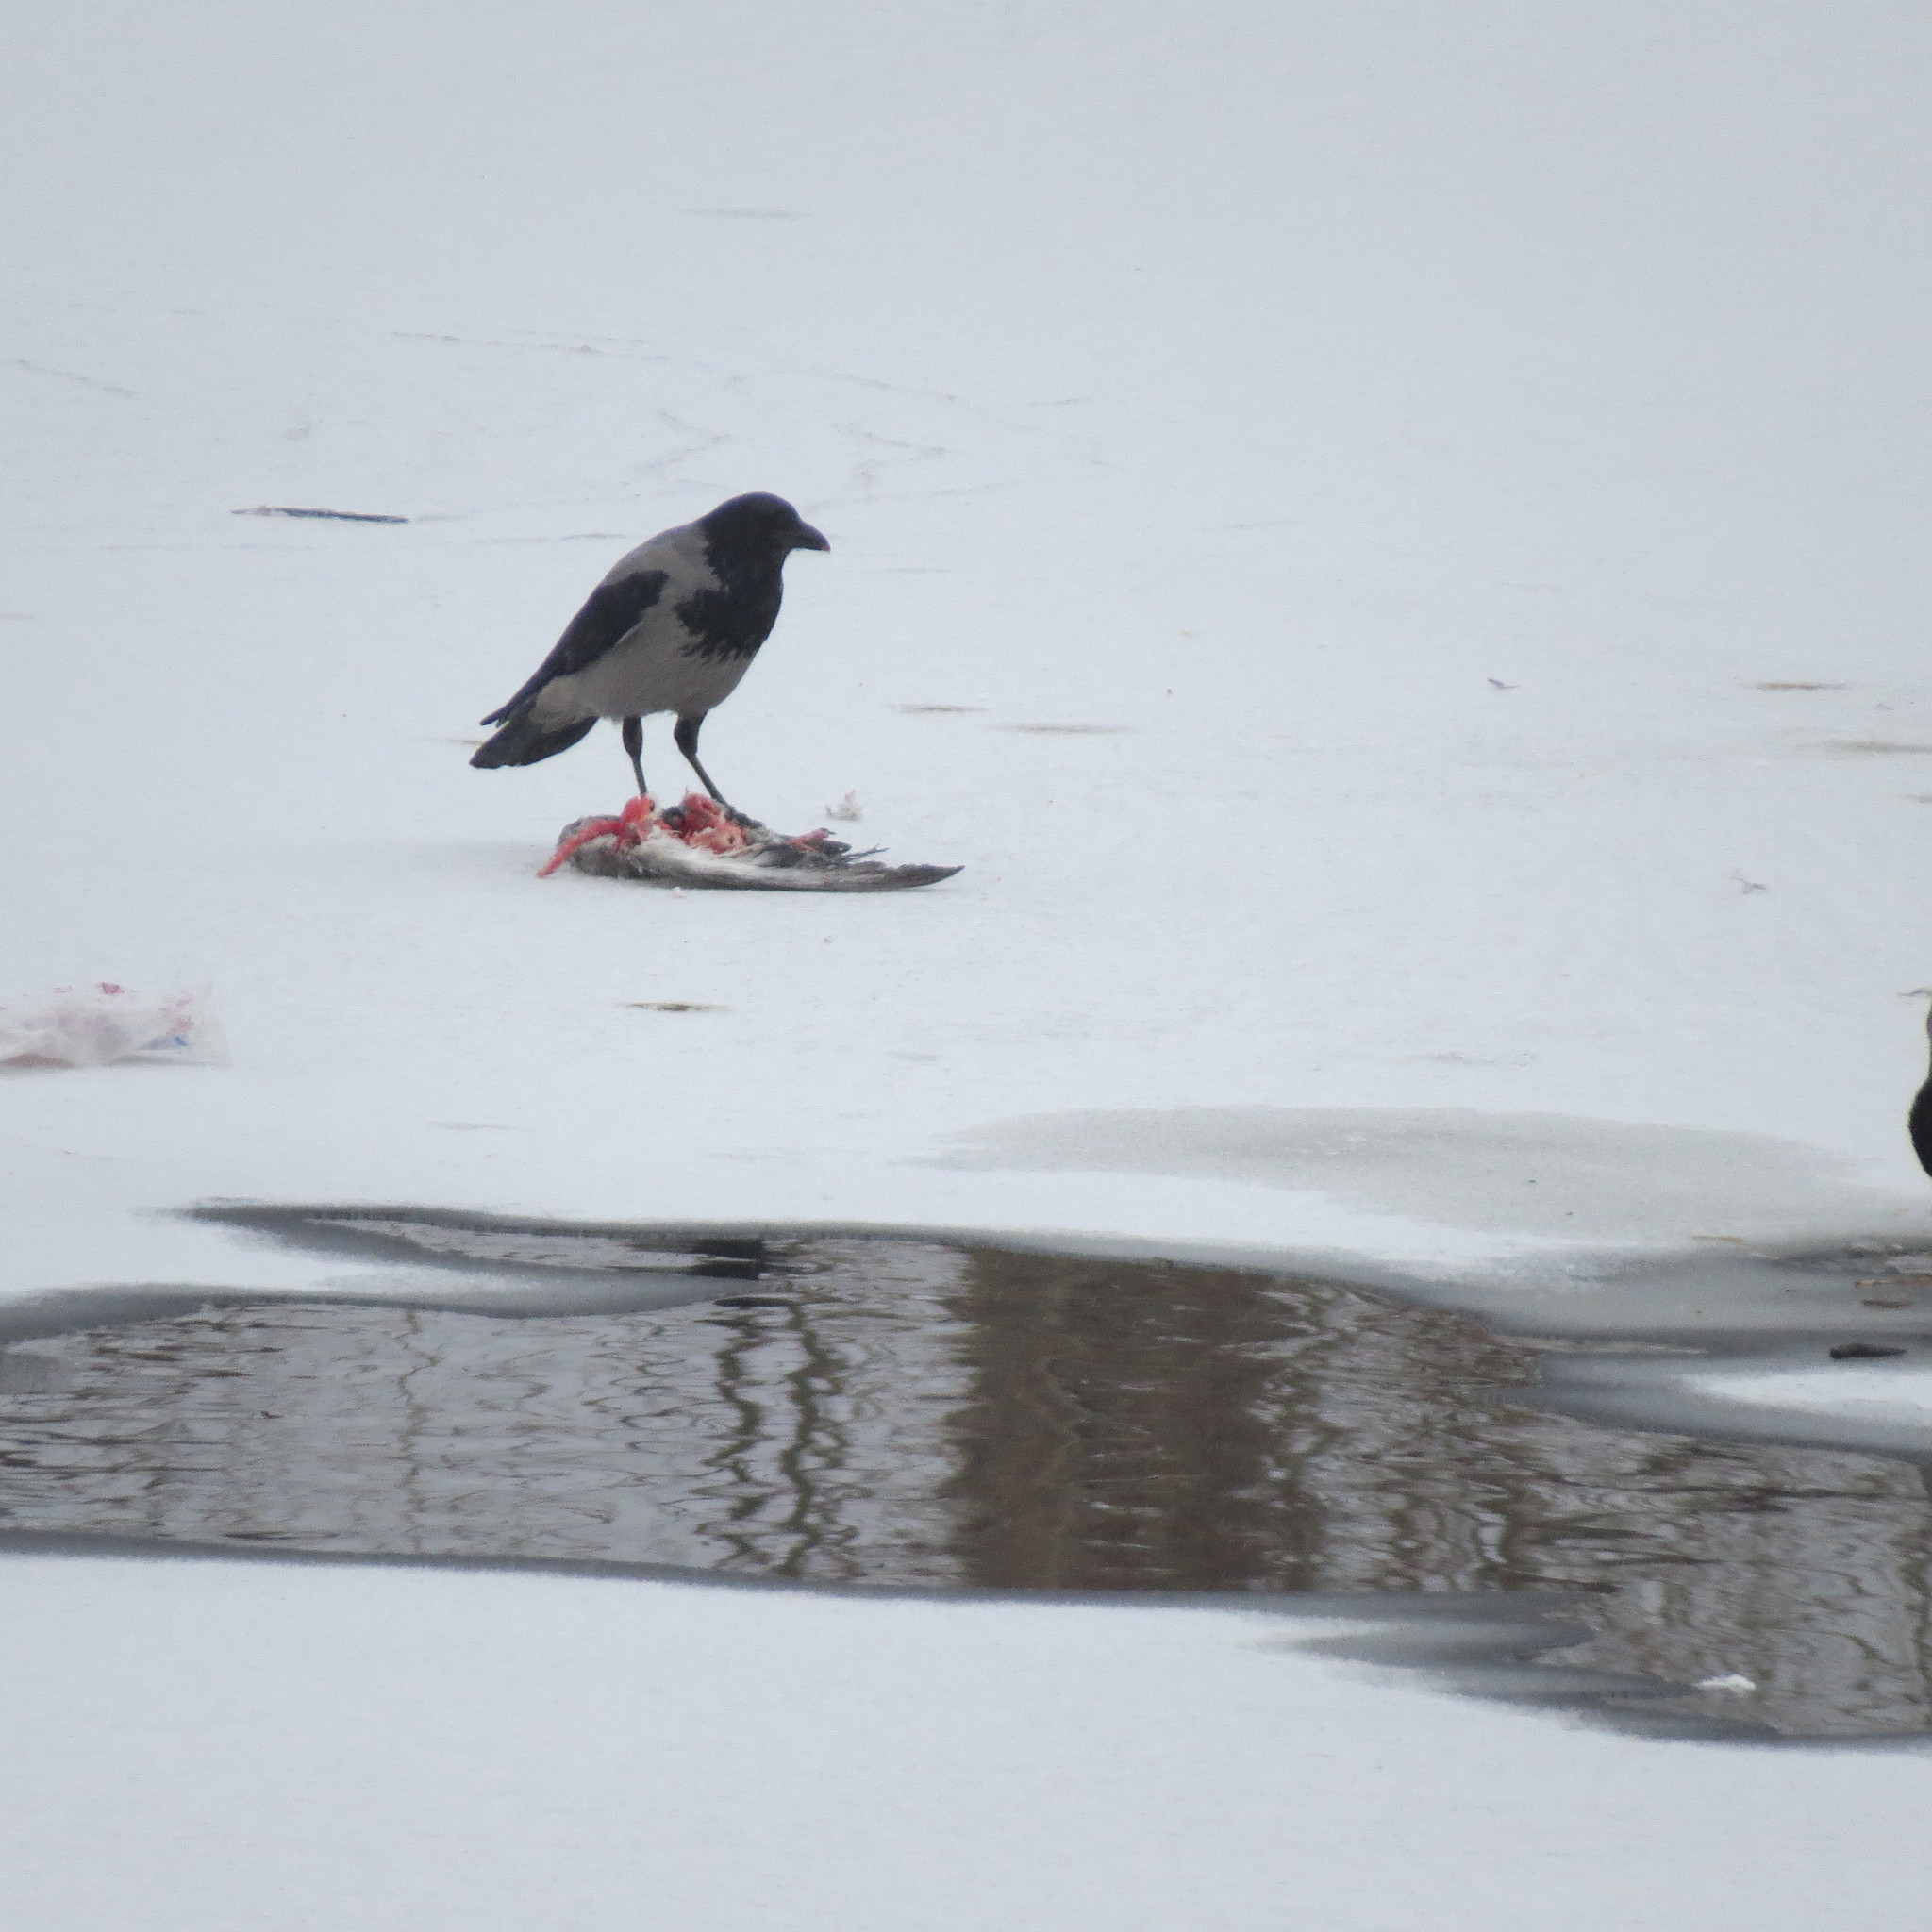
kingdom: Animalia
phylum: Chordata
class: Aves
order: Passeriformes
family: Corvidae
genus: Corvus
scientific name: Corvus cornix
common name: Hooded crow
